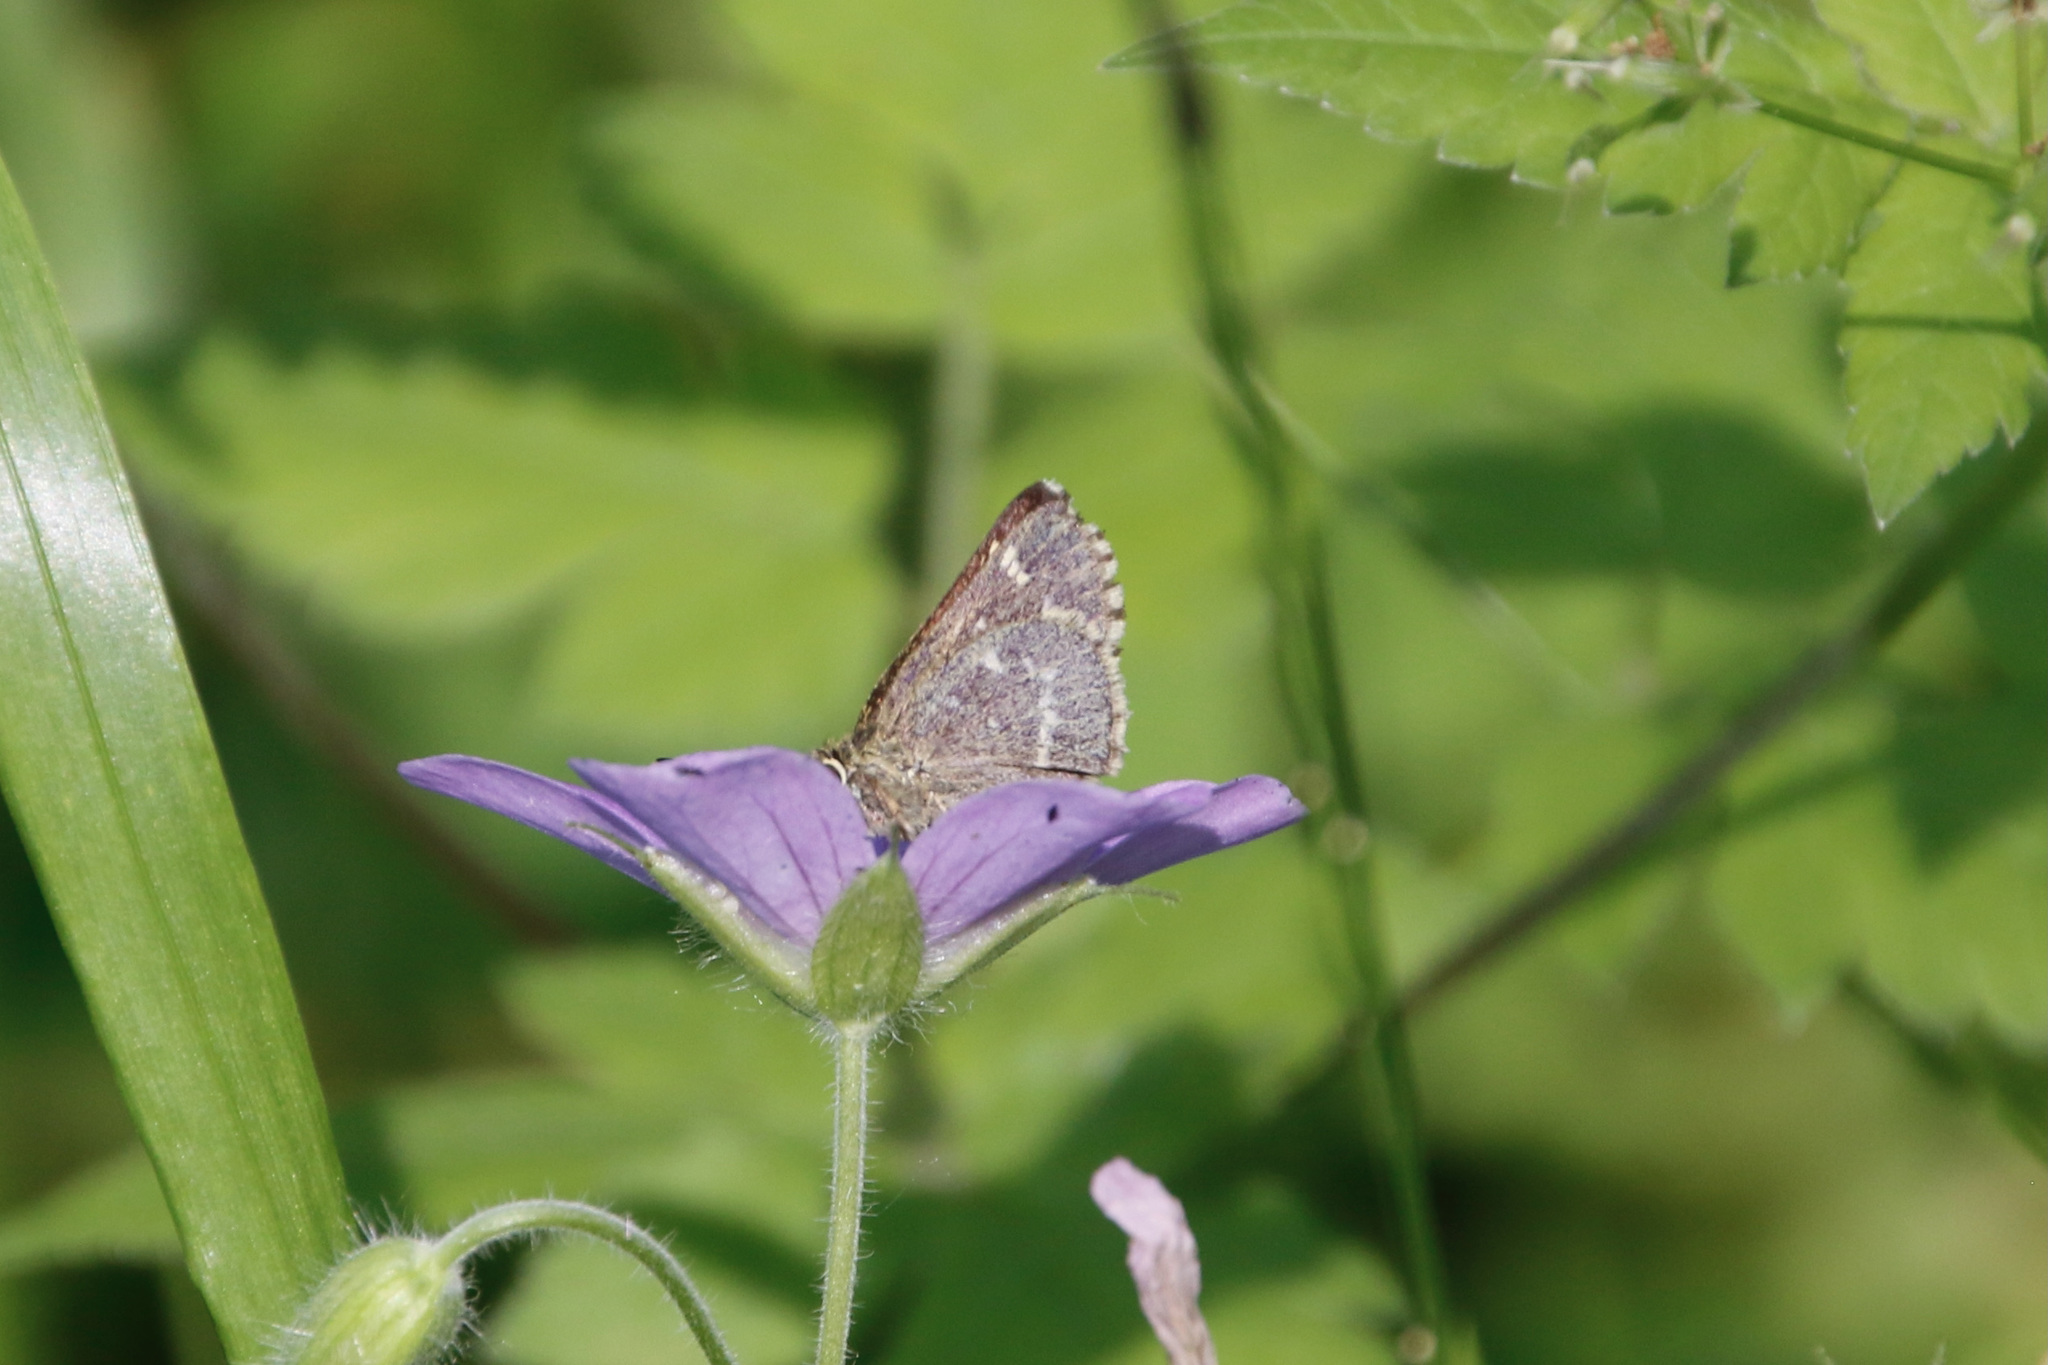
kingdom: Animalia
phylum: Arthropoda
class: Insecta
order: Lepidoptera
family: Hesperiidae
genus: Mastor
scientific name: Mastor hegon
